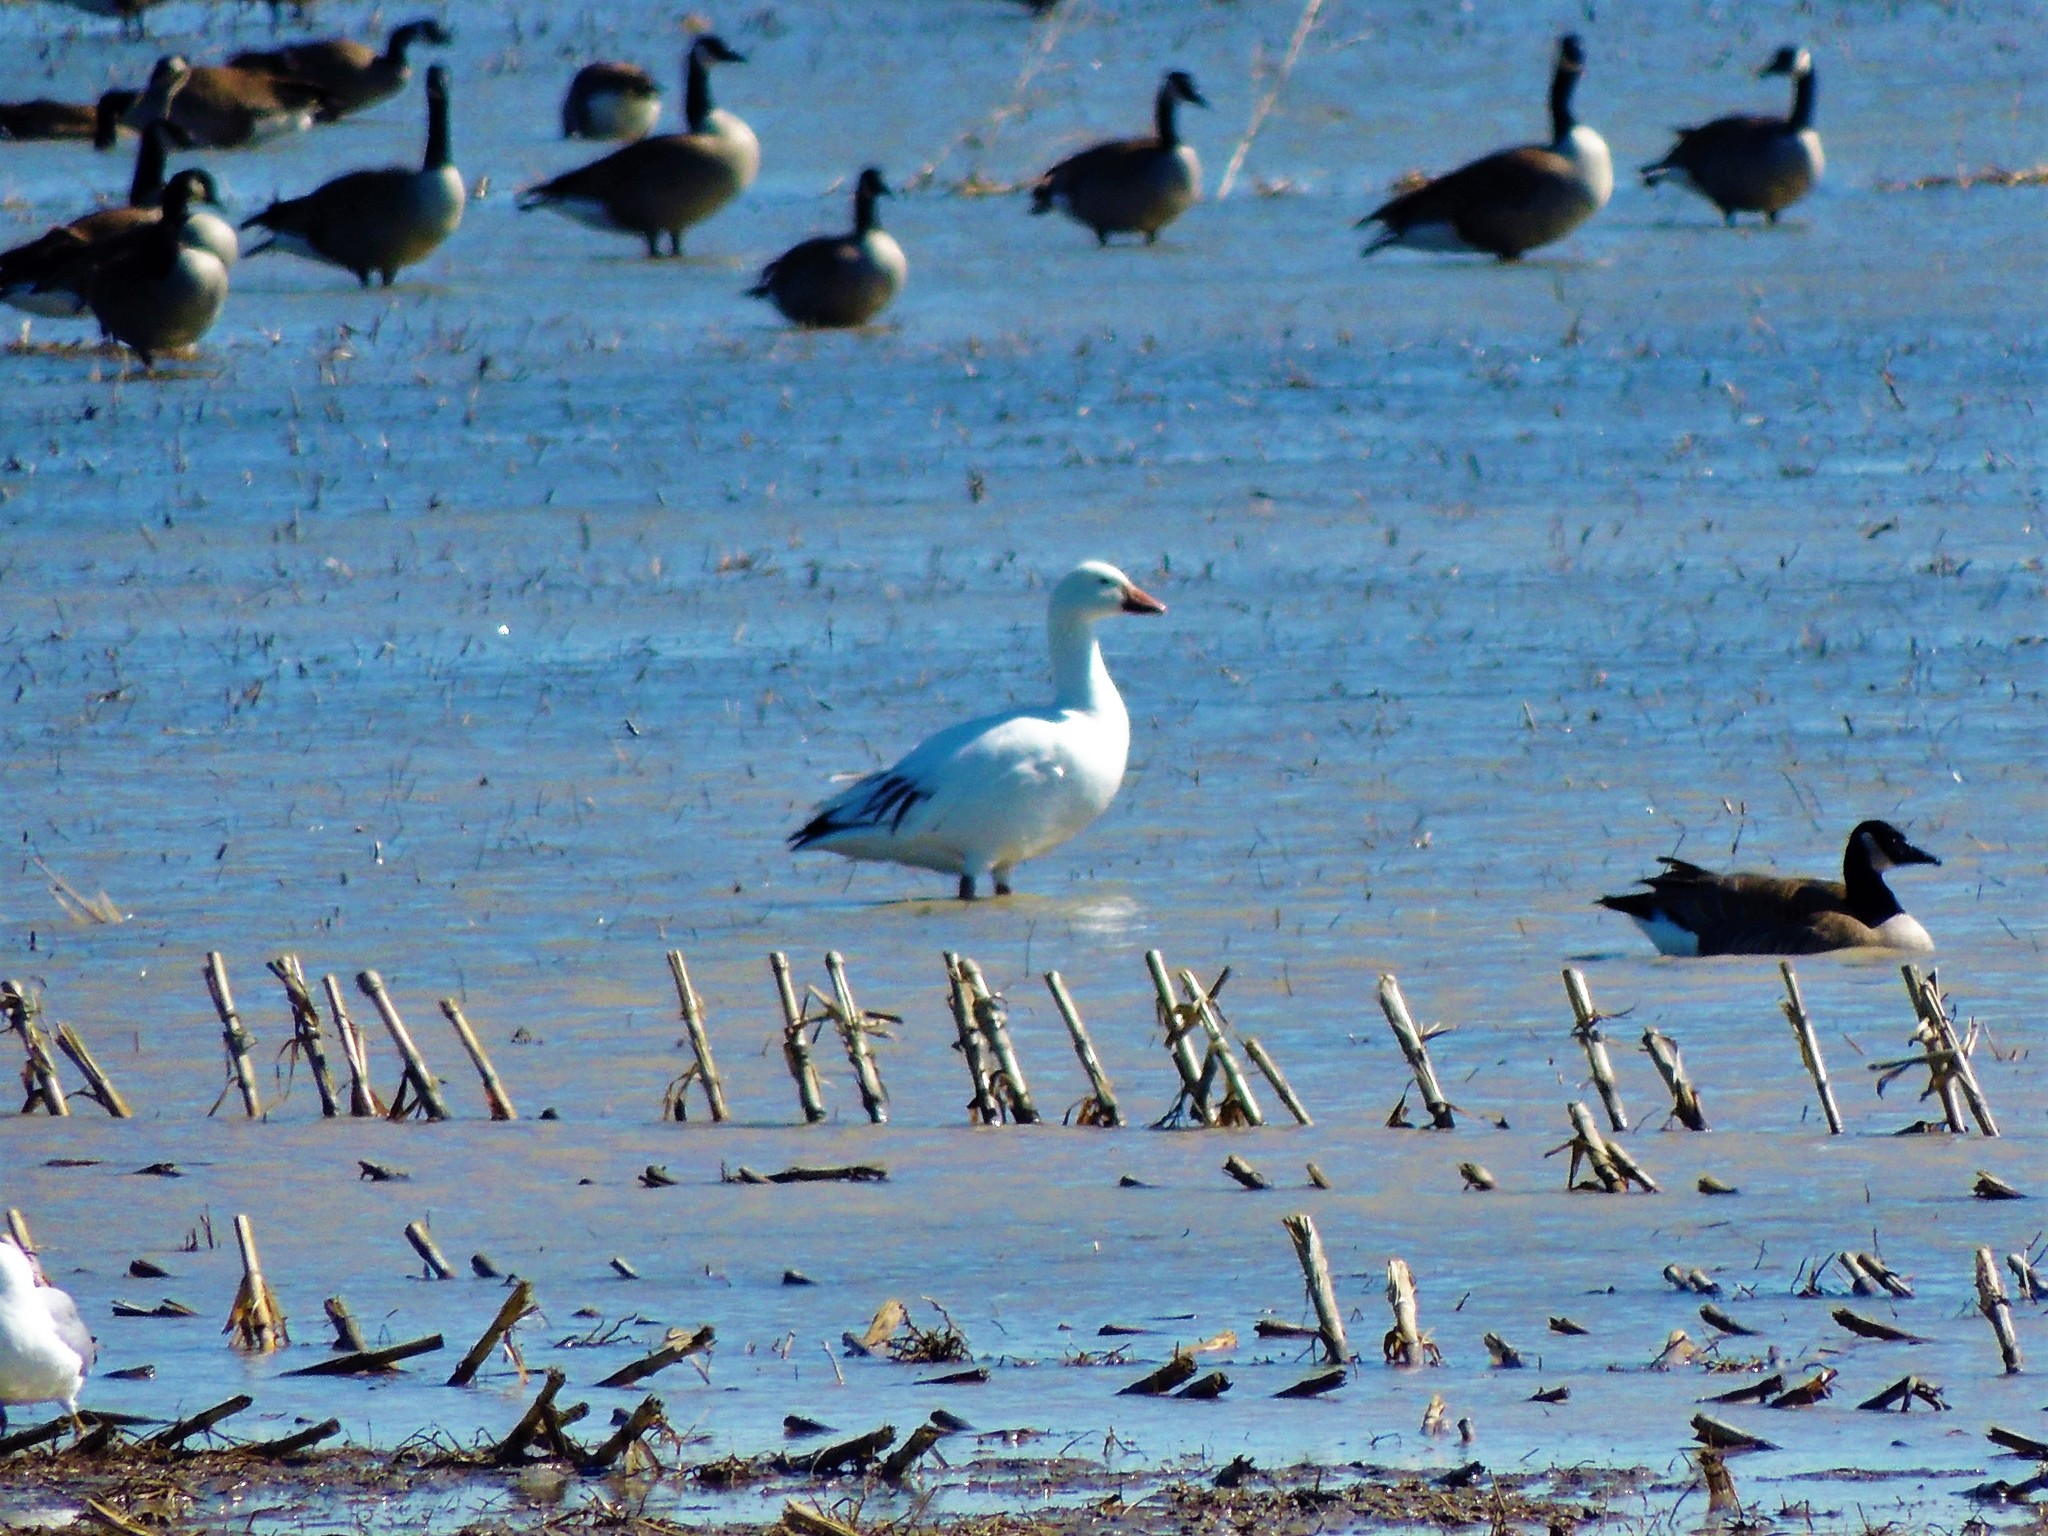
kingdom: Animalia
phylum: Chordata
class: Aves
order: Anseriformes
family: Anatidae
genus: Anser
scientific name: Anser caerulescens
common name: Snow goose
